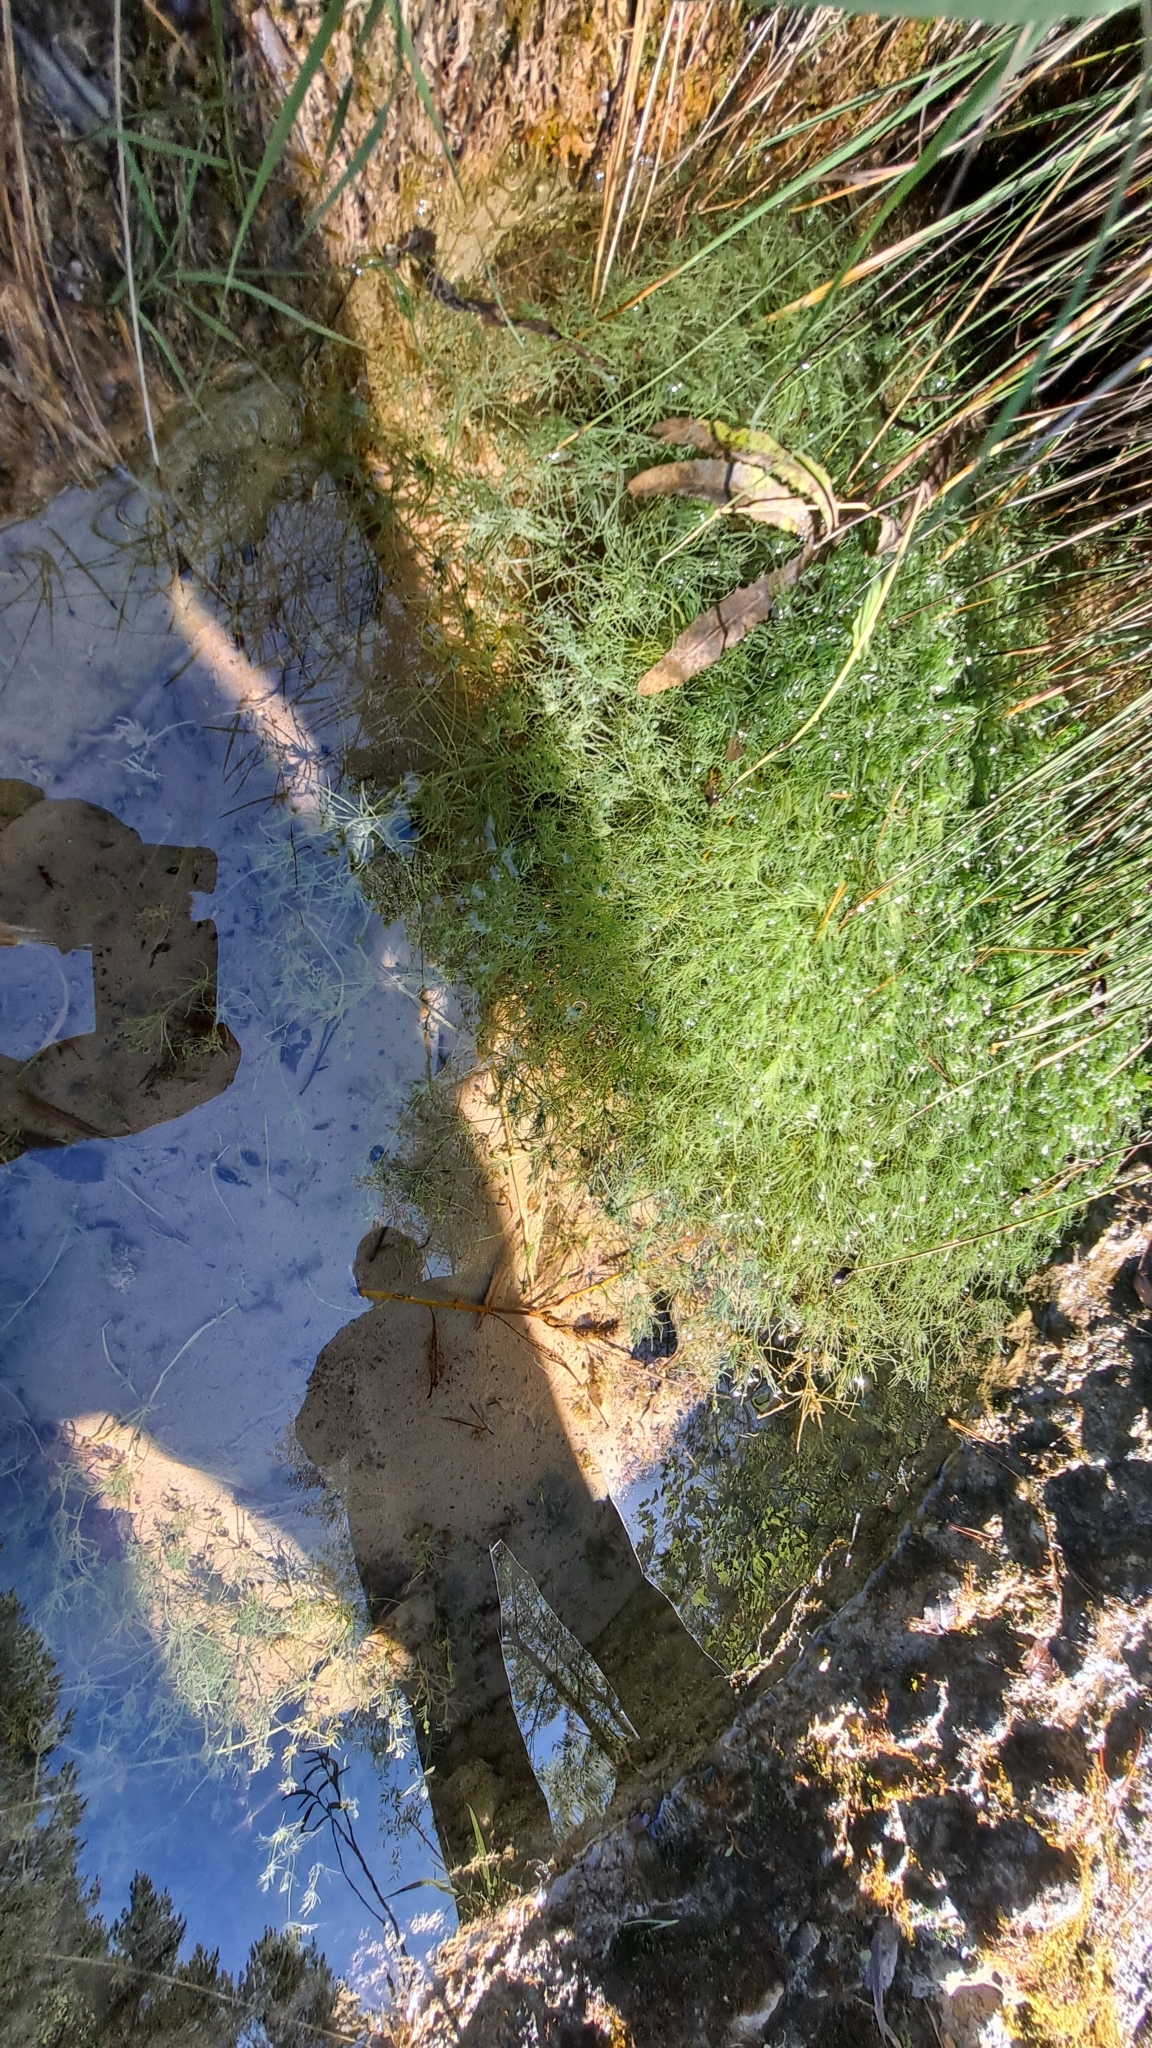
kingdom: Plantae
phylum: Charophyta
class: Charophyceae
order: Charales
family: Characeae
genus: Chara
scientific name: Chara vulgaris
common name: Common stonewort
